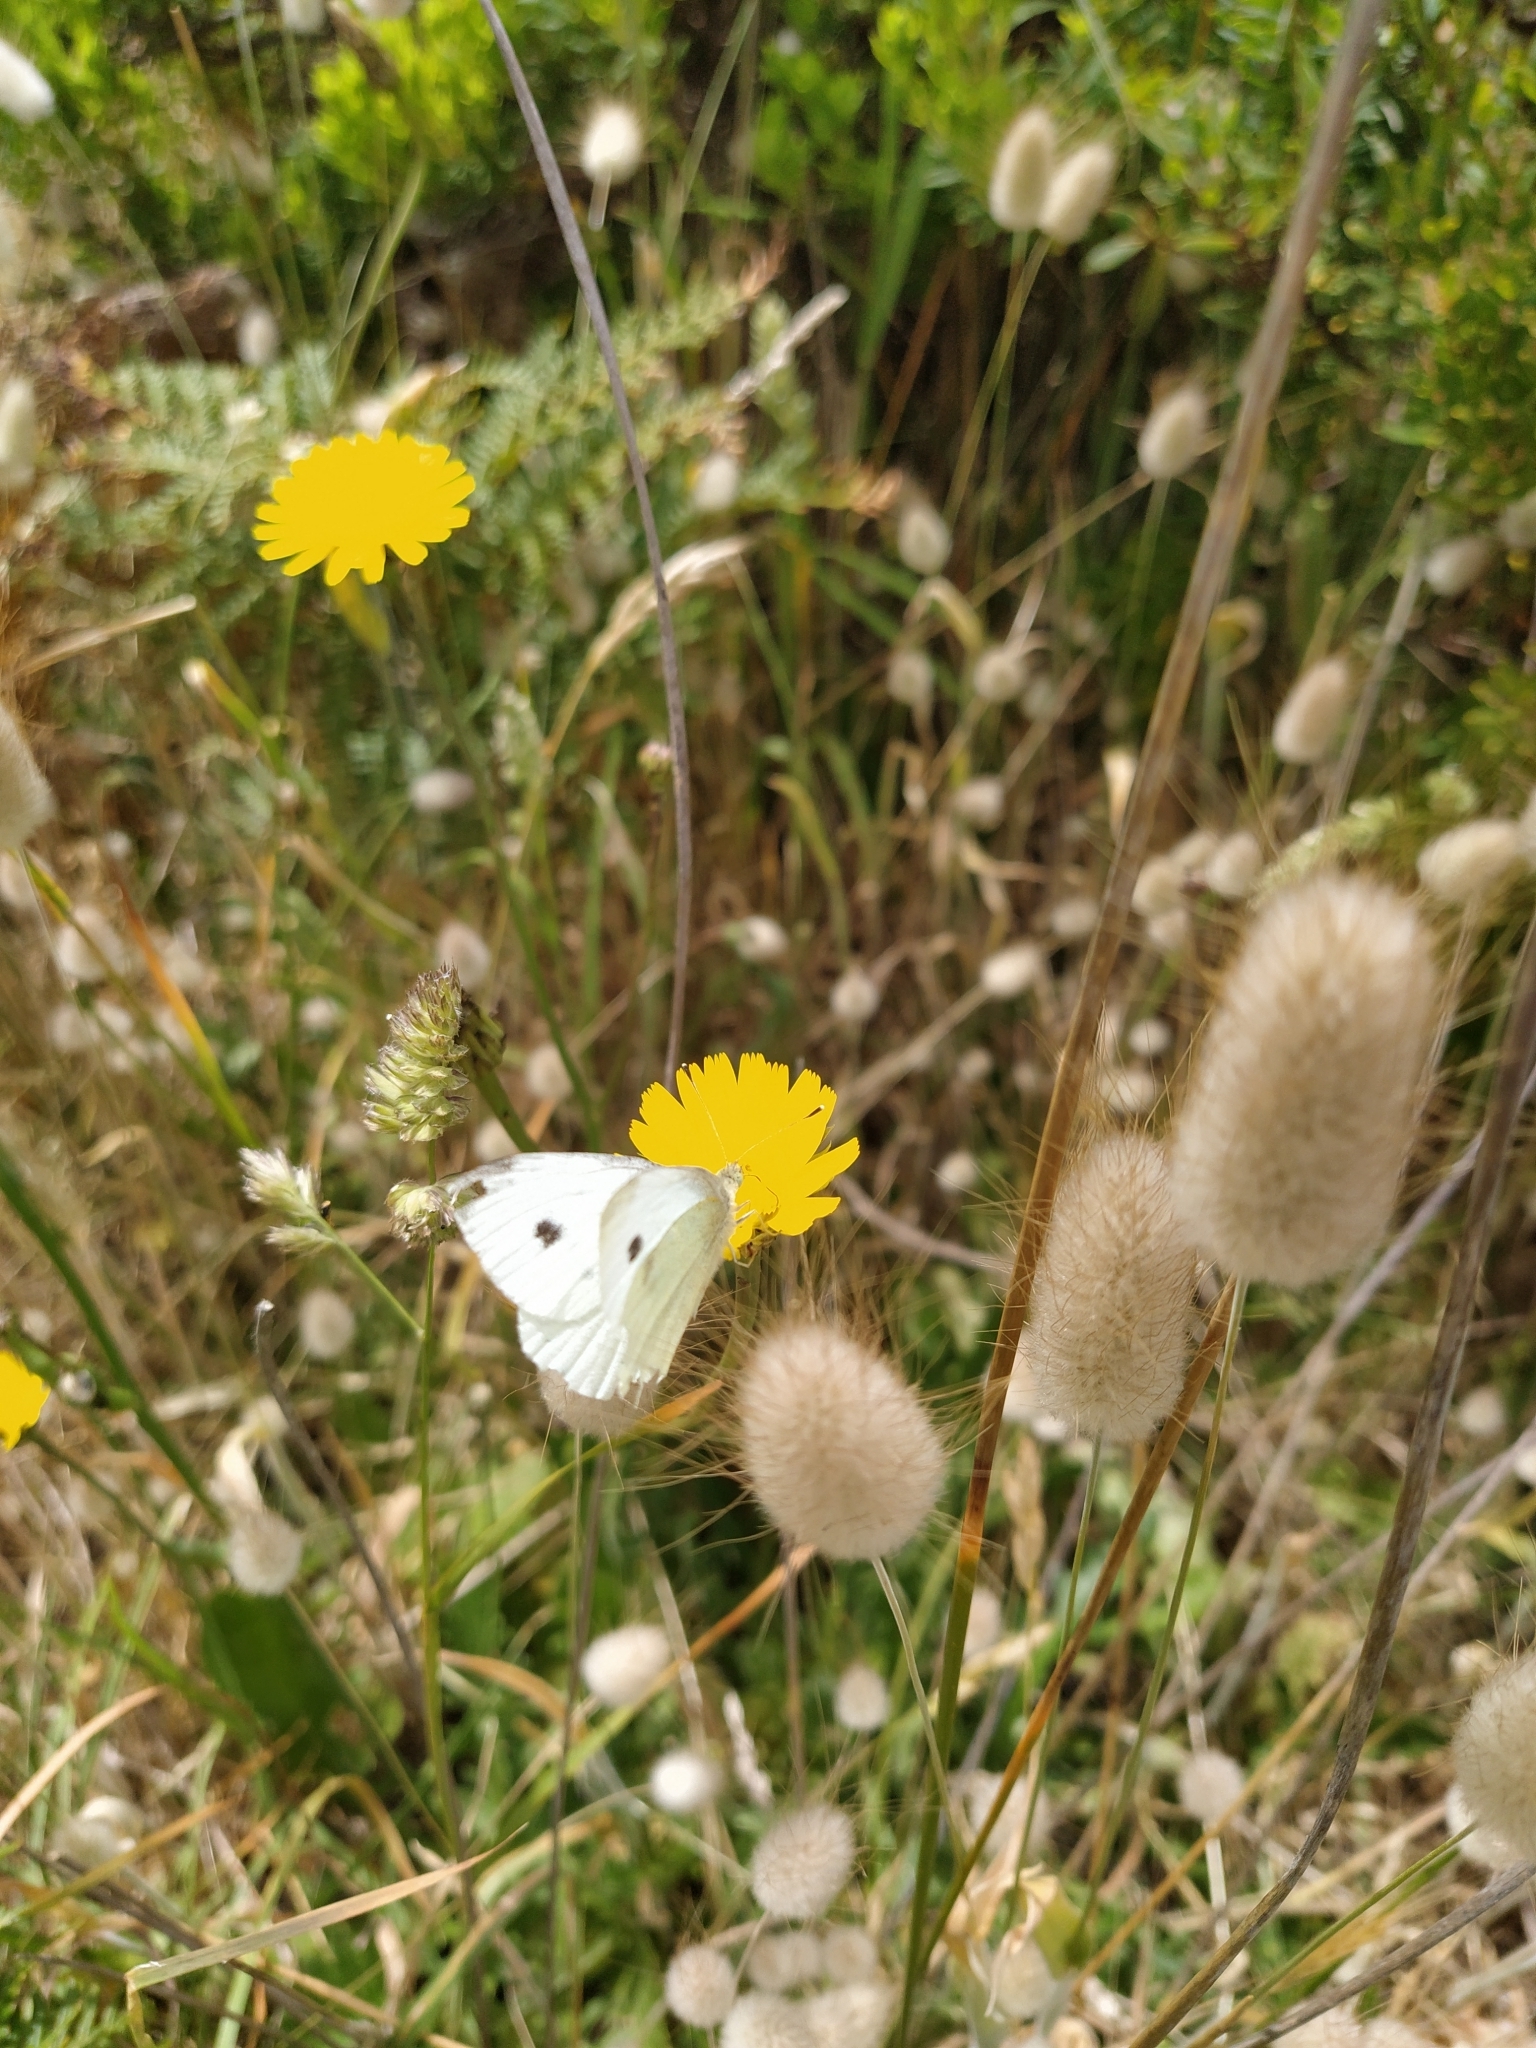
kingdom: Animalia
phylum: Arthropoda
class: Insecta
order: Lepidoptera
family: Pieridae
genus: Pieris
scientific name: Pieris rapae
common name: Small white
